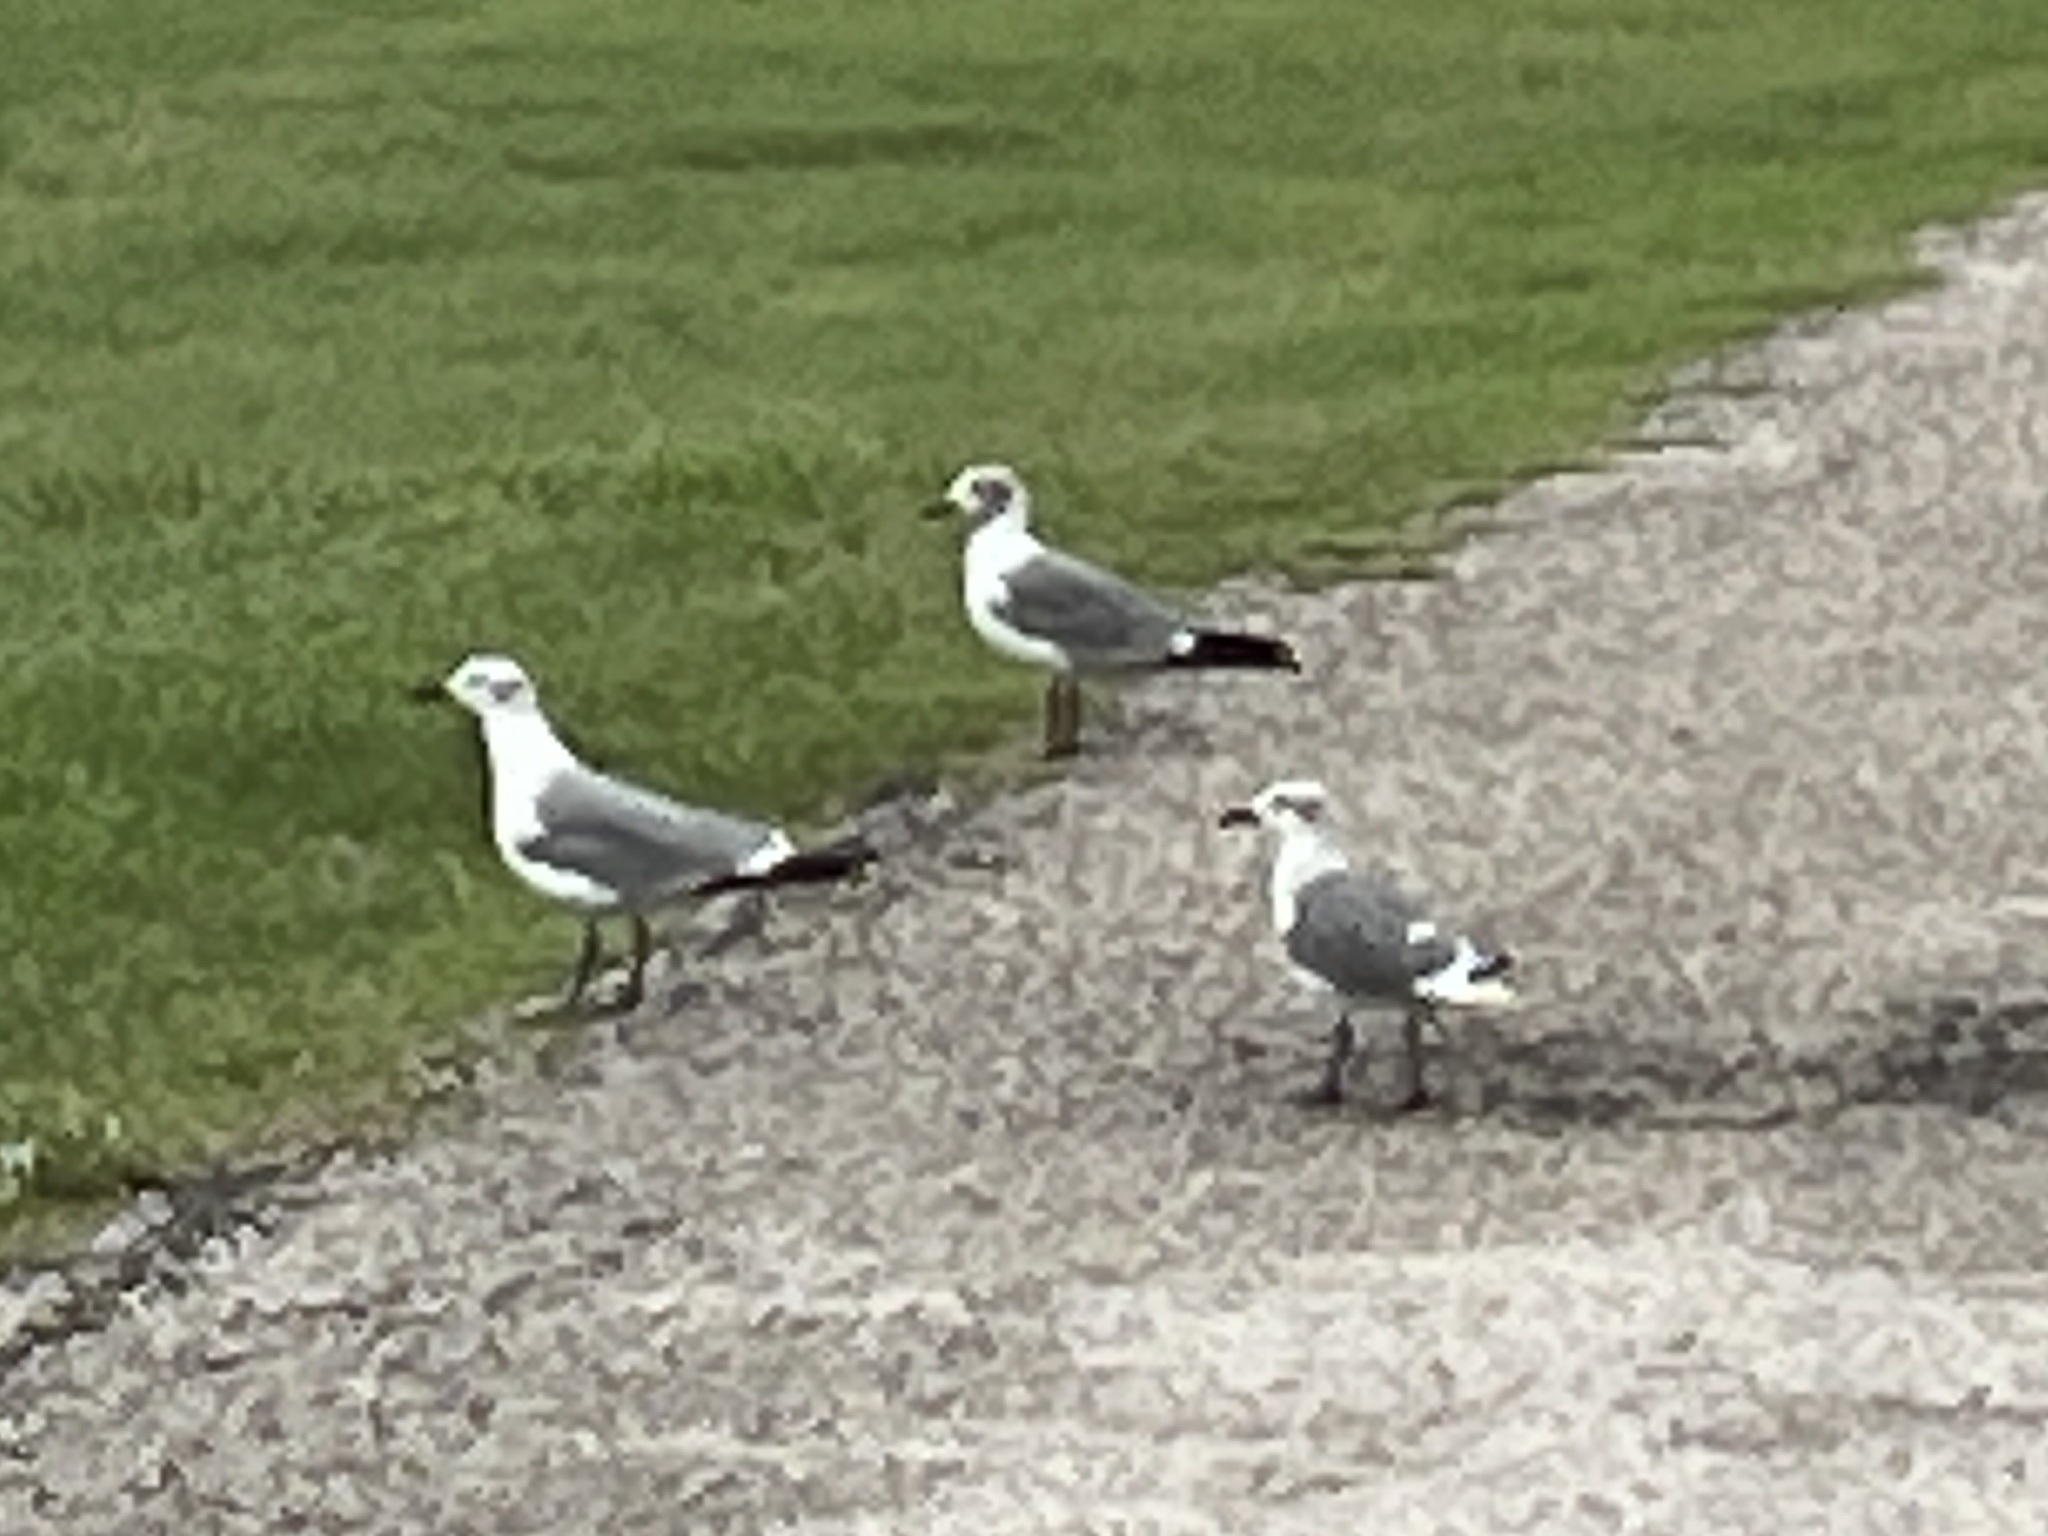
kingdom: Animalia
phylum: Chordata
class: Aves
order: Charadriiformes
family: Laridae
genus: Leucophaeus
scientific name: Leucophaeus atricilla
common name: Laughing gull
